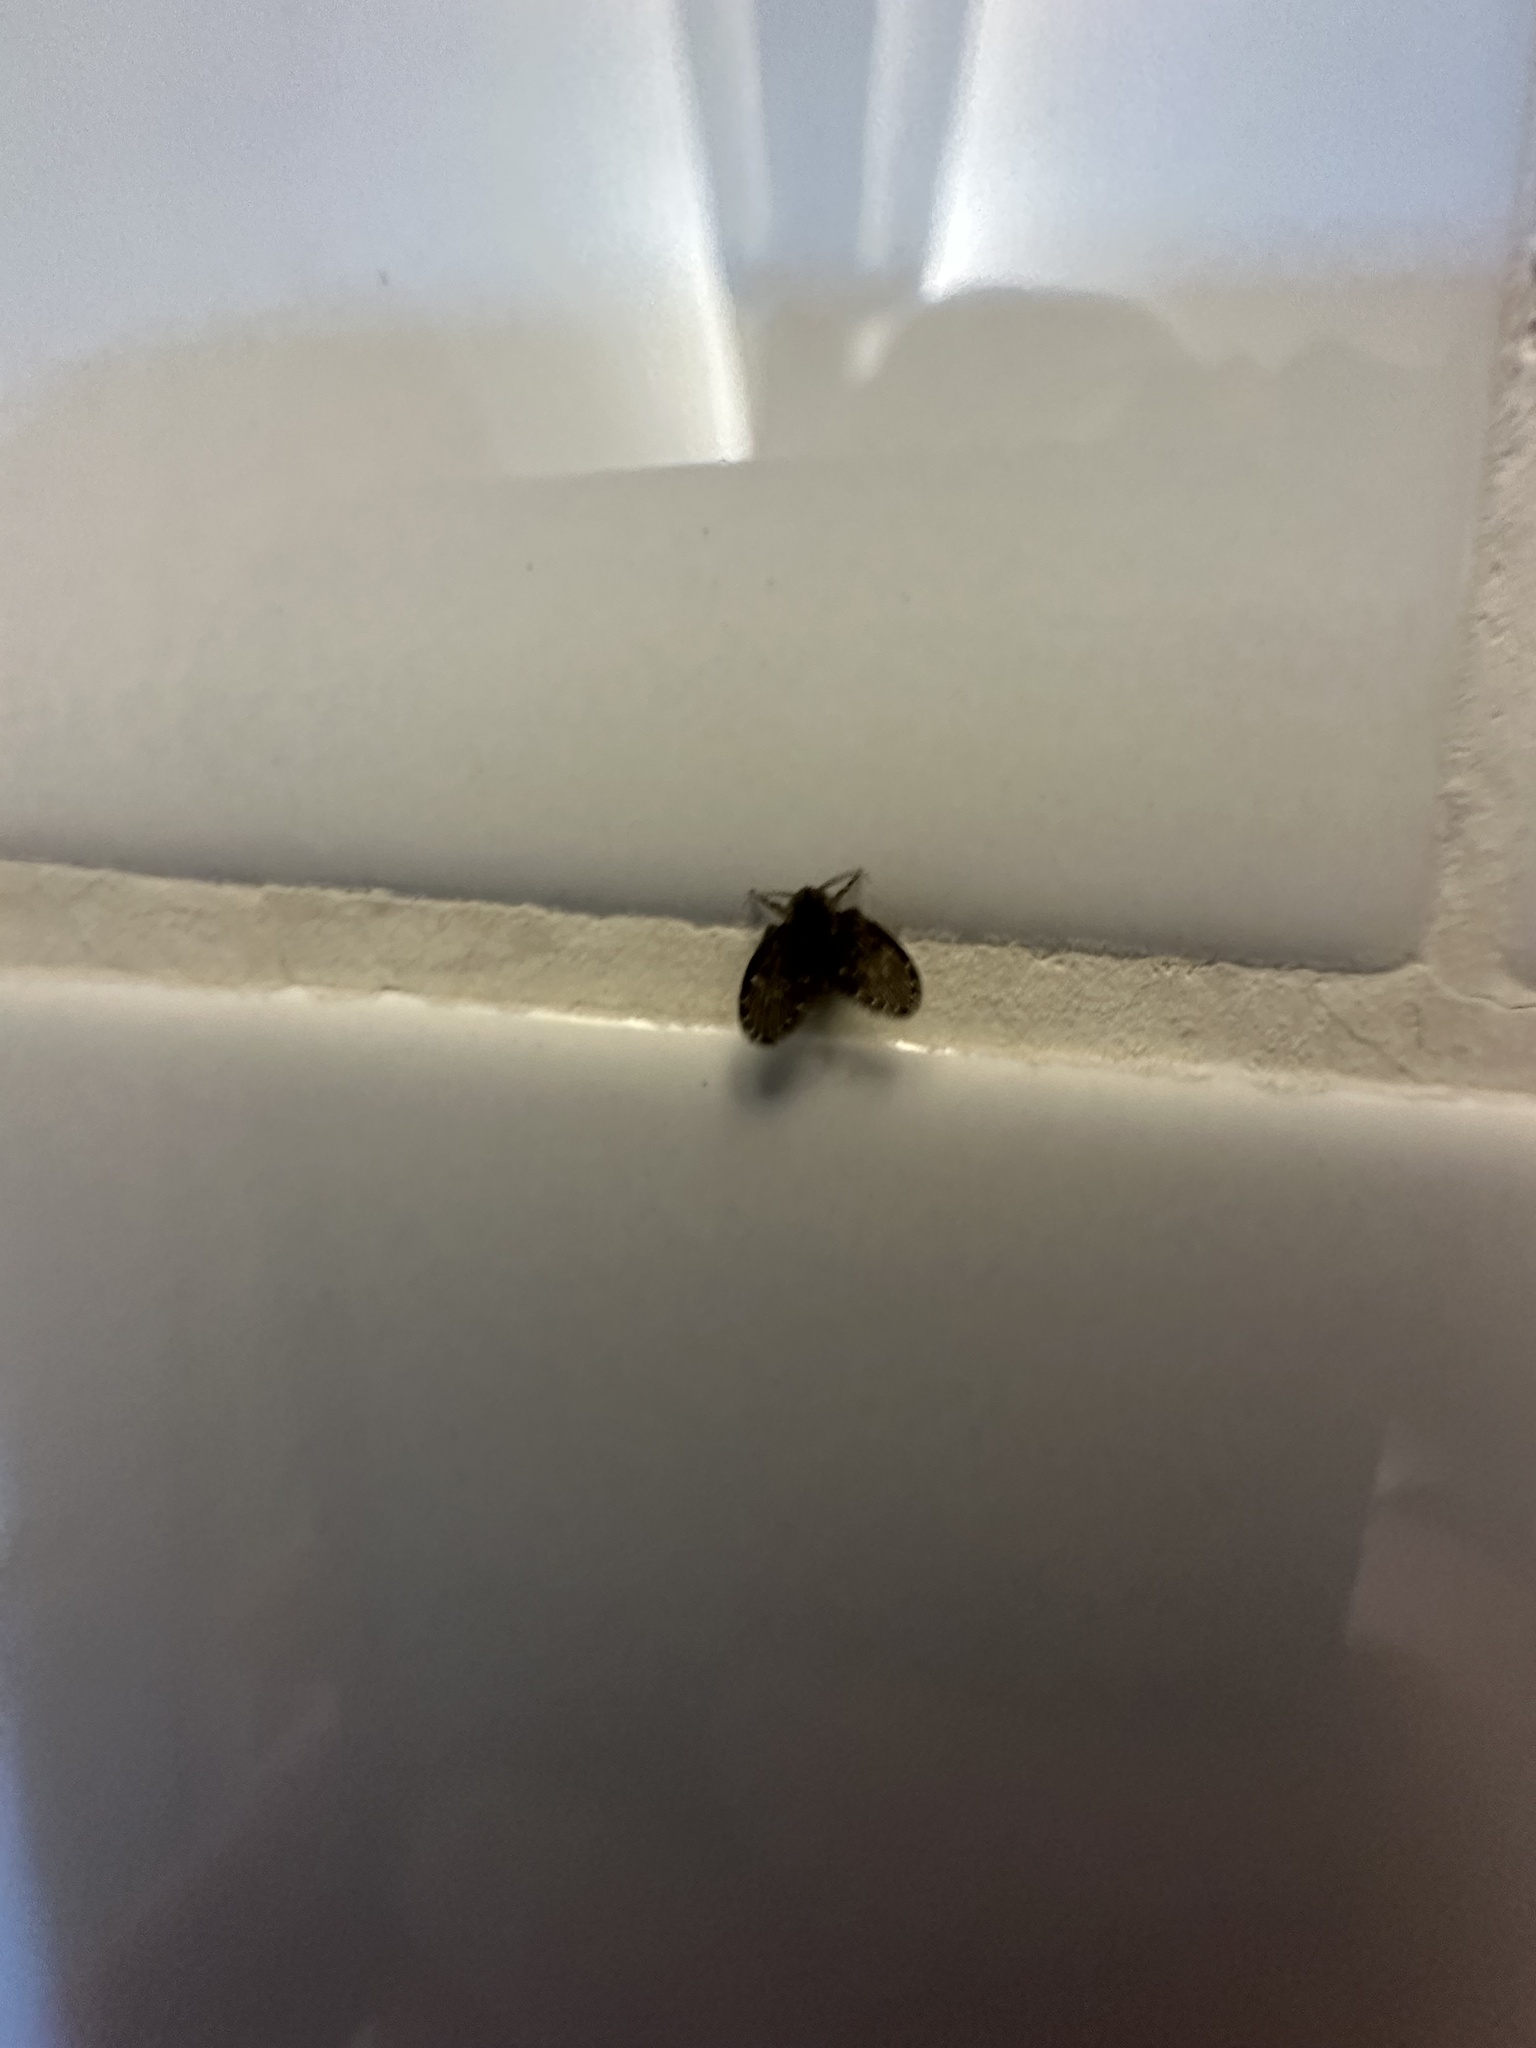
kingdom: Animalia
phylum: Arthropoda
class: Insecta
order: Diptera
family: Psychodidae
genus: Clogmia
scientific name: Clogmia albipunctatus
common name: White-spotted moth fly
